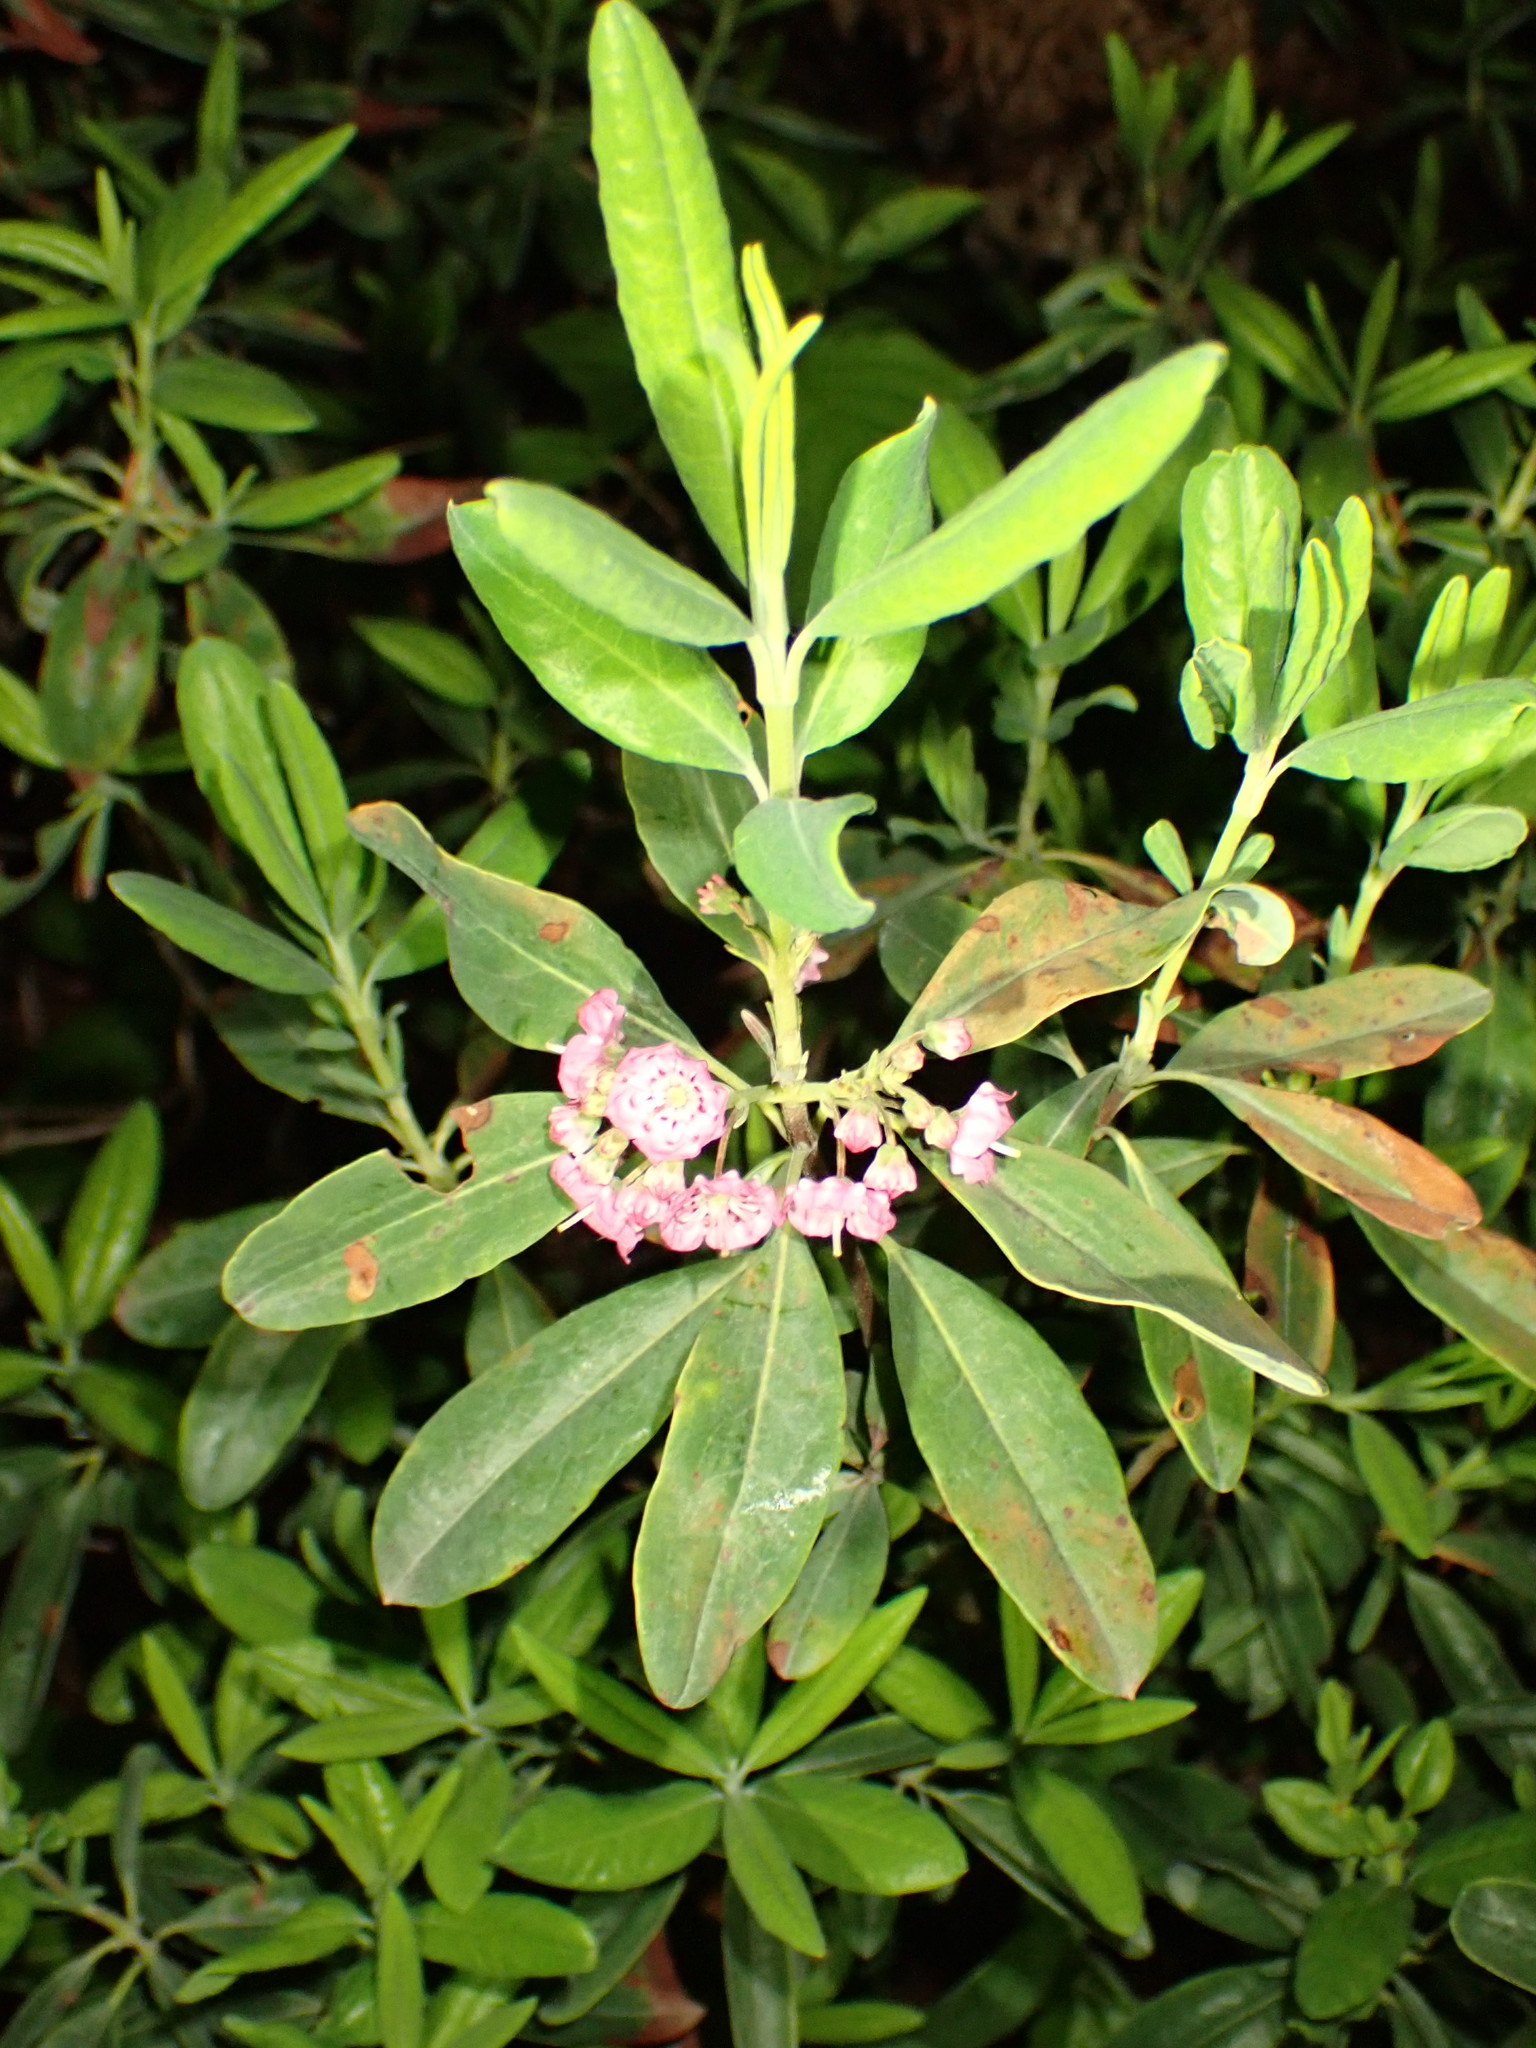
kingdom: Plantae
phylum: Tracheophyta
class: Magnoliopsida
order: Ericales
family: Ericaceae
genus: Kalmia
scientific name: Kalmia angustifolia
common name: Sheep-laurel
